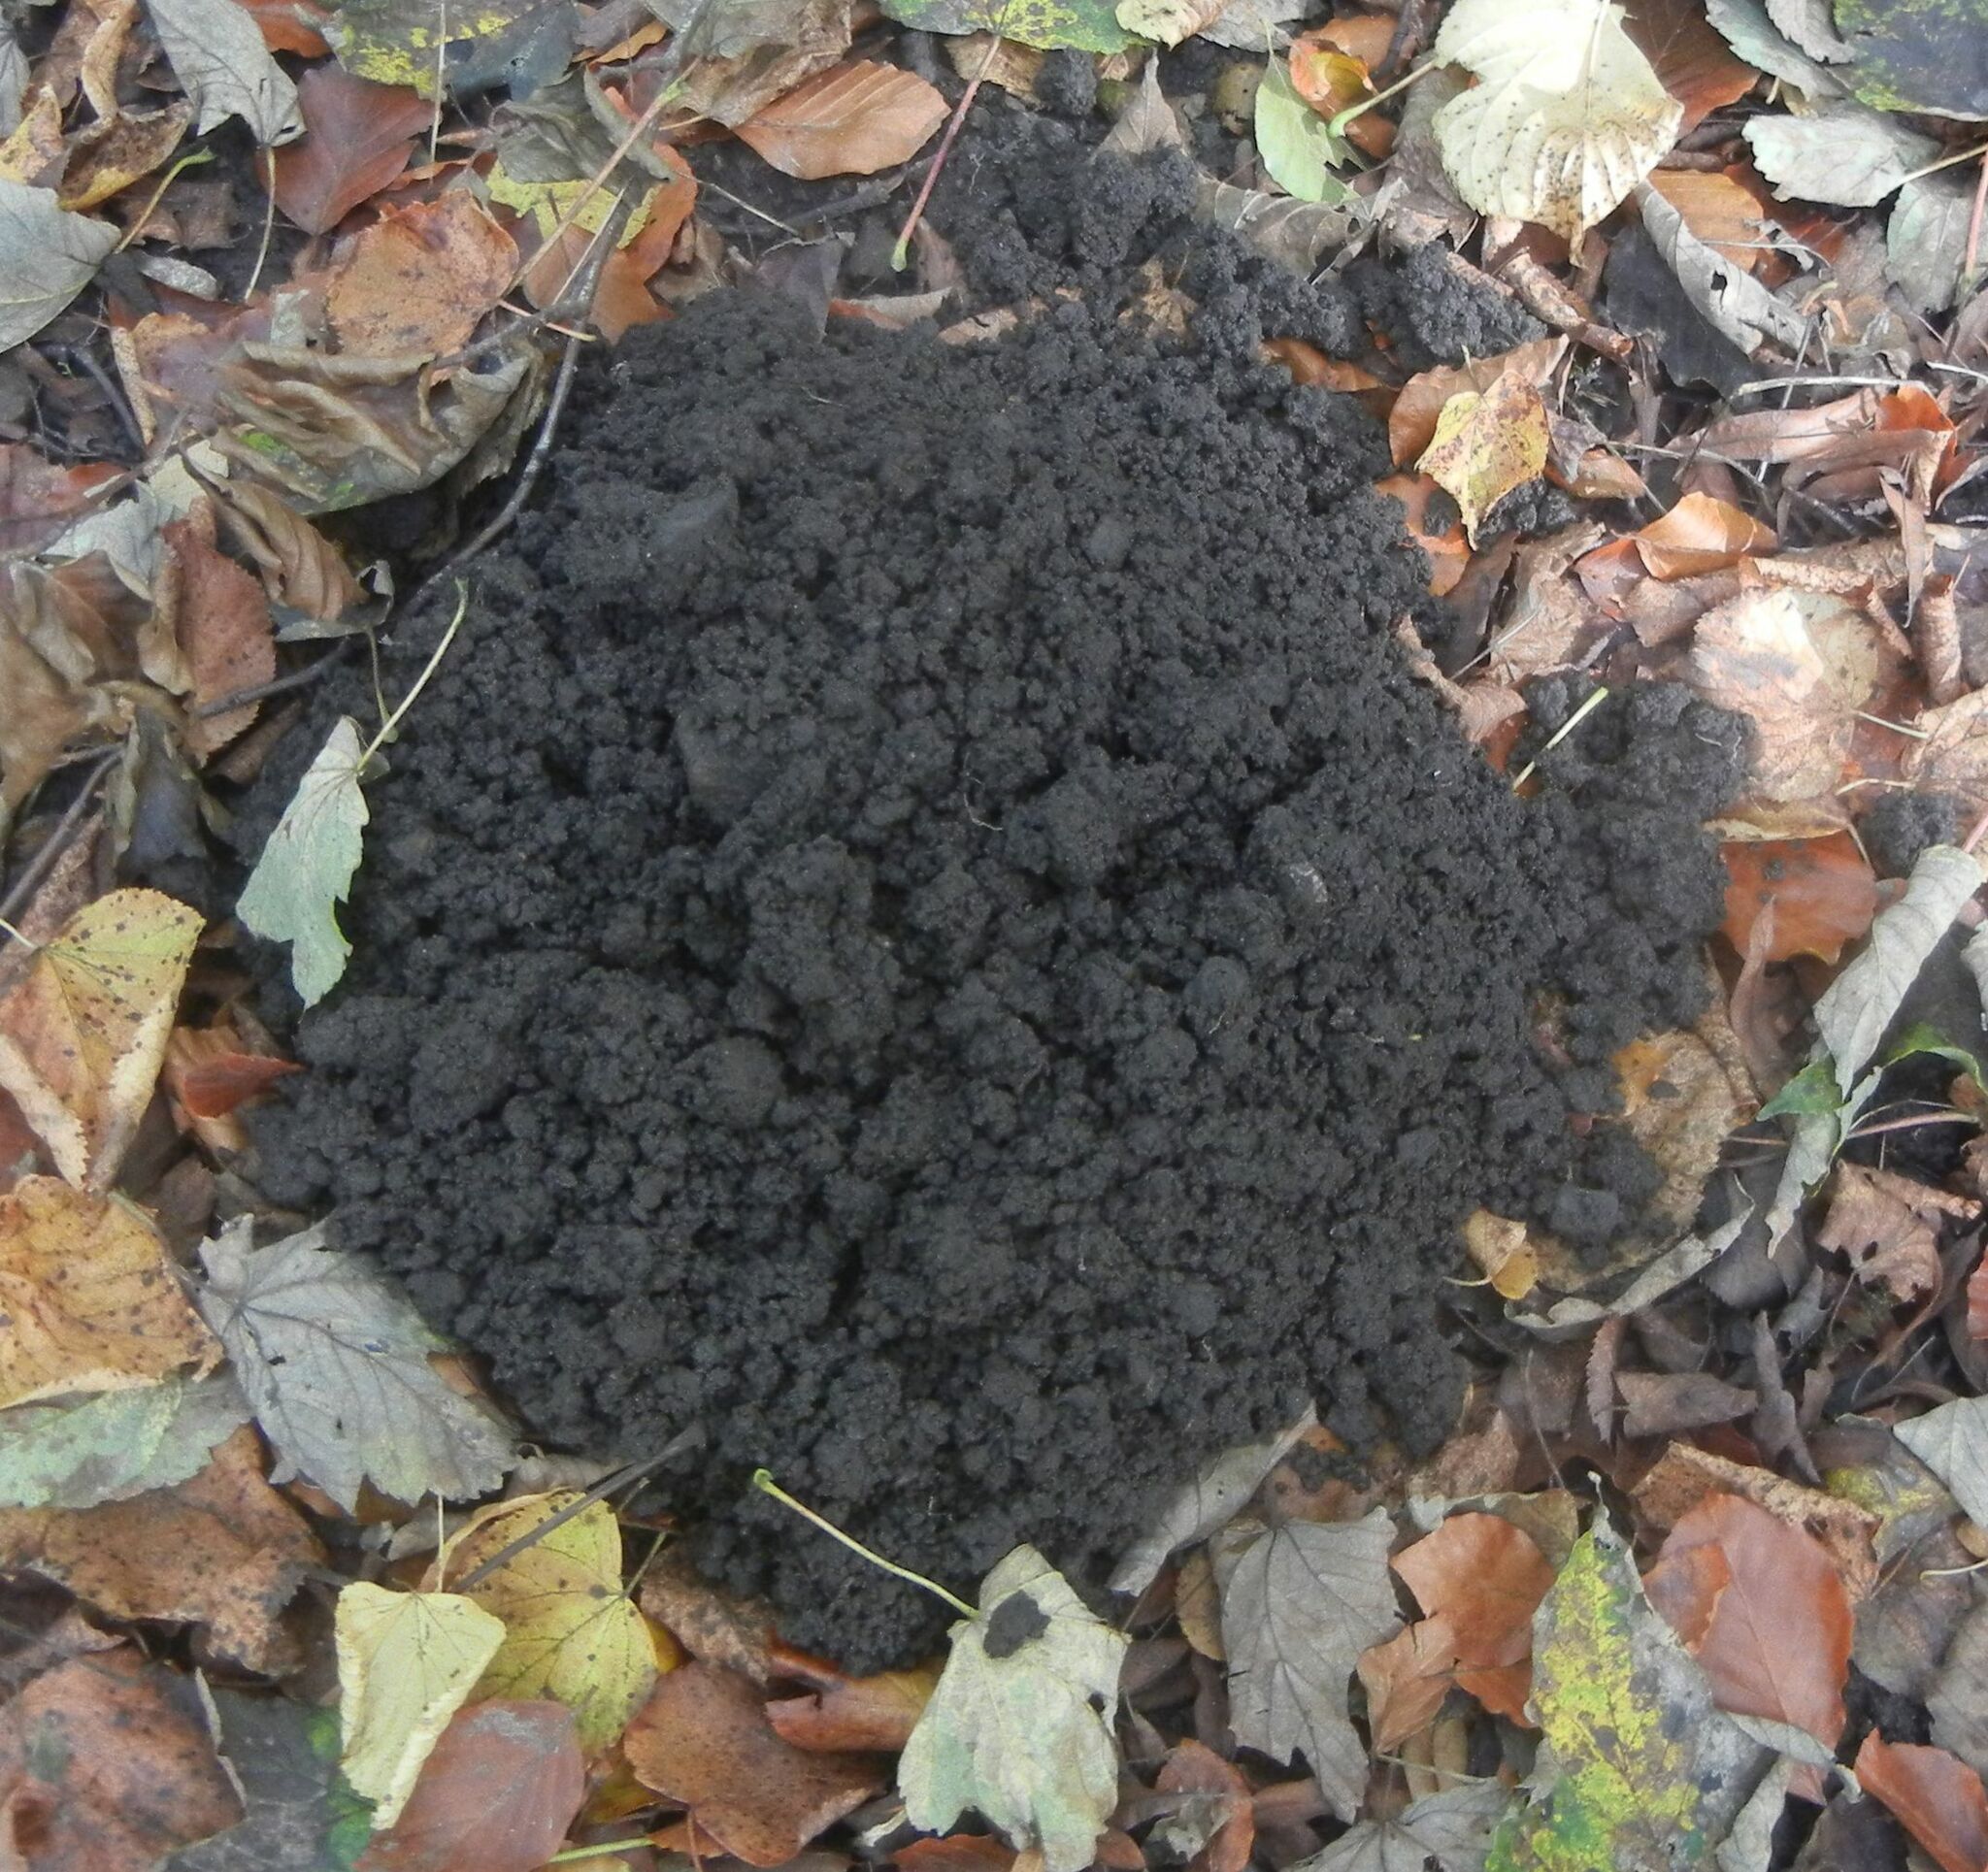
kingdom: Animalia
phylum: Chordata
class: Mammalia
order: Soricomorpha
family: Talpidae
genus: Talpa
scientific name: Talpa europaea
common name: European mole
